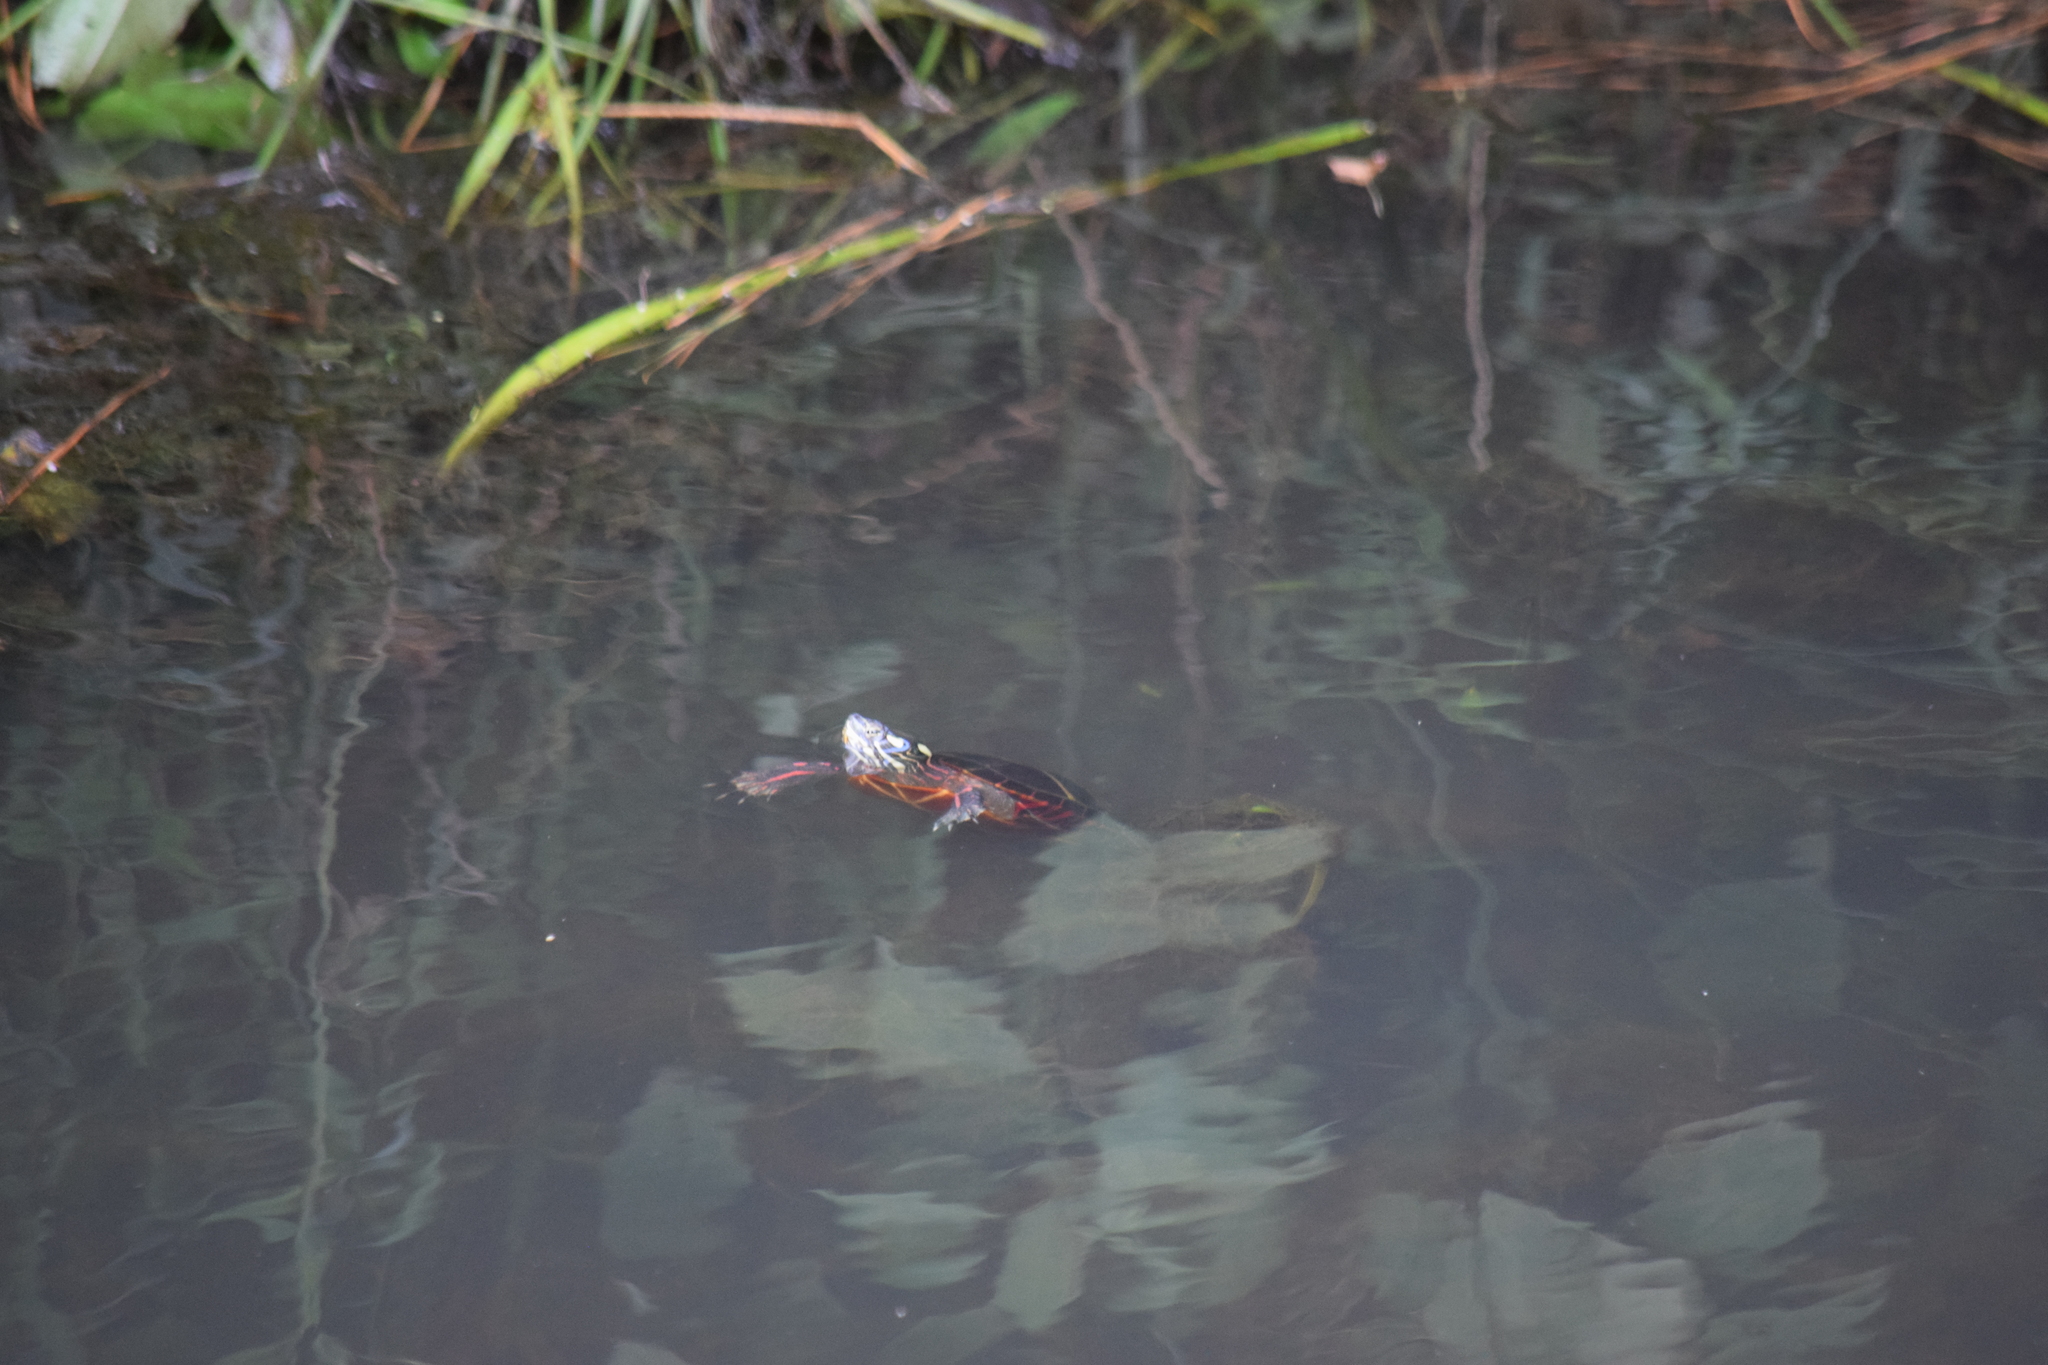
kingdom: Animalia
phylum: Chordata
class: Testudines
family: Emydidae
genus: Chrysemys
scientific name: Chrysemys picta
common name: Painted turtle
